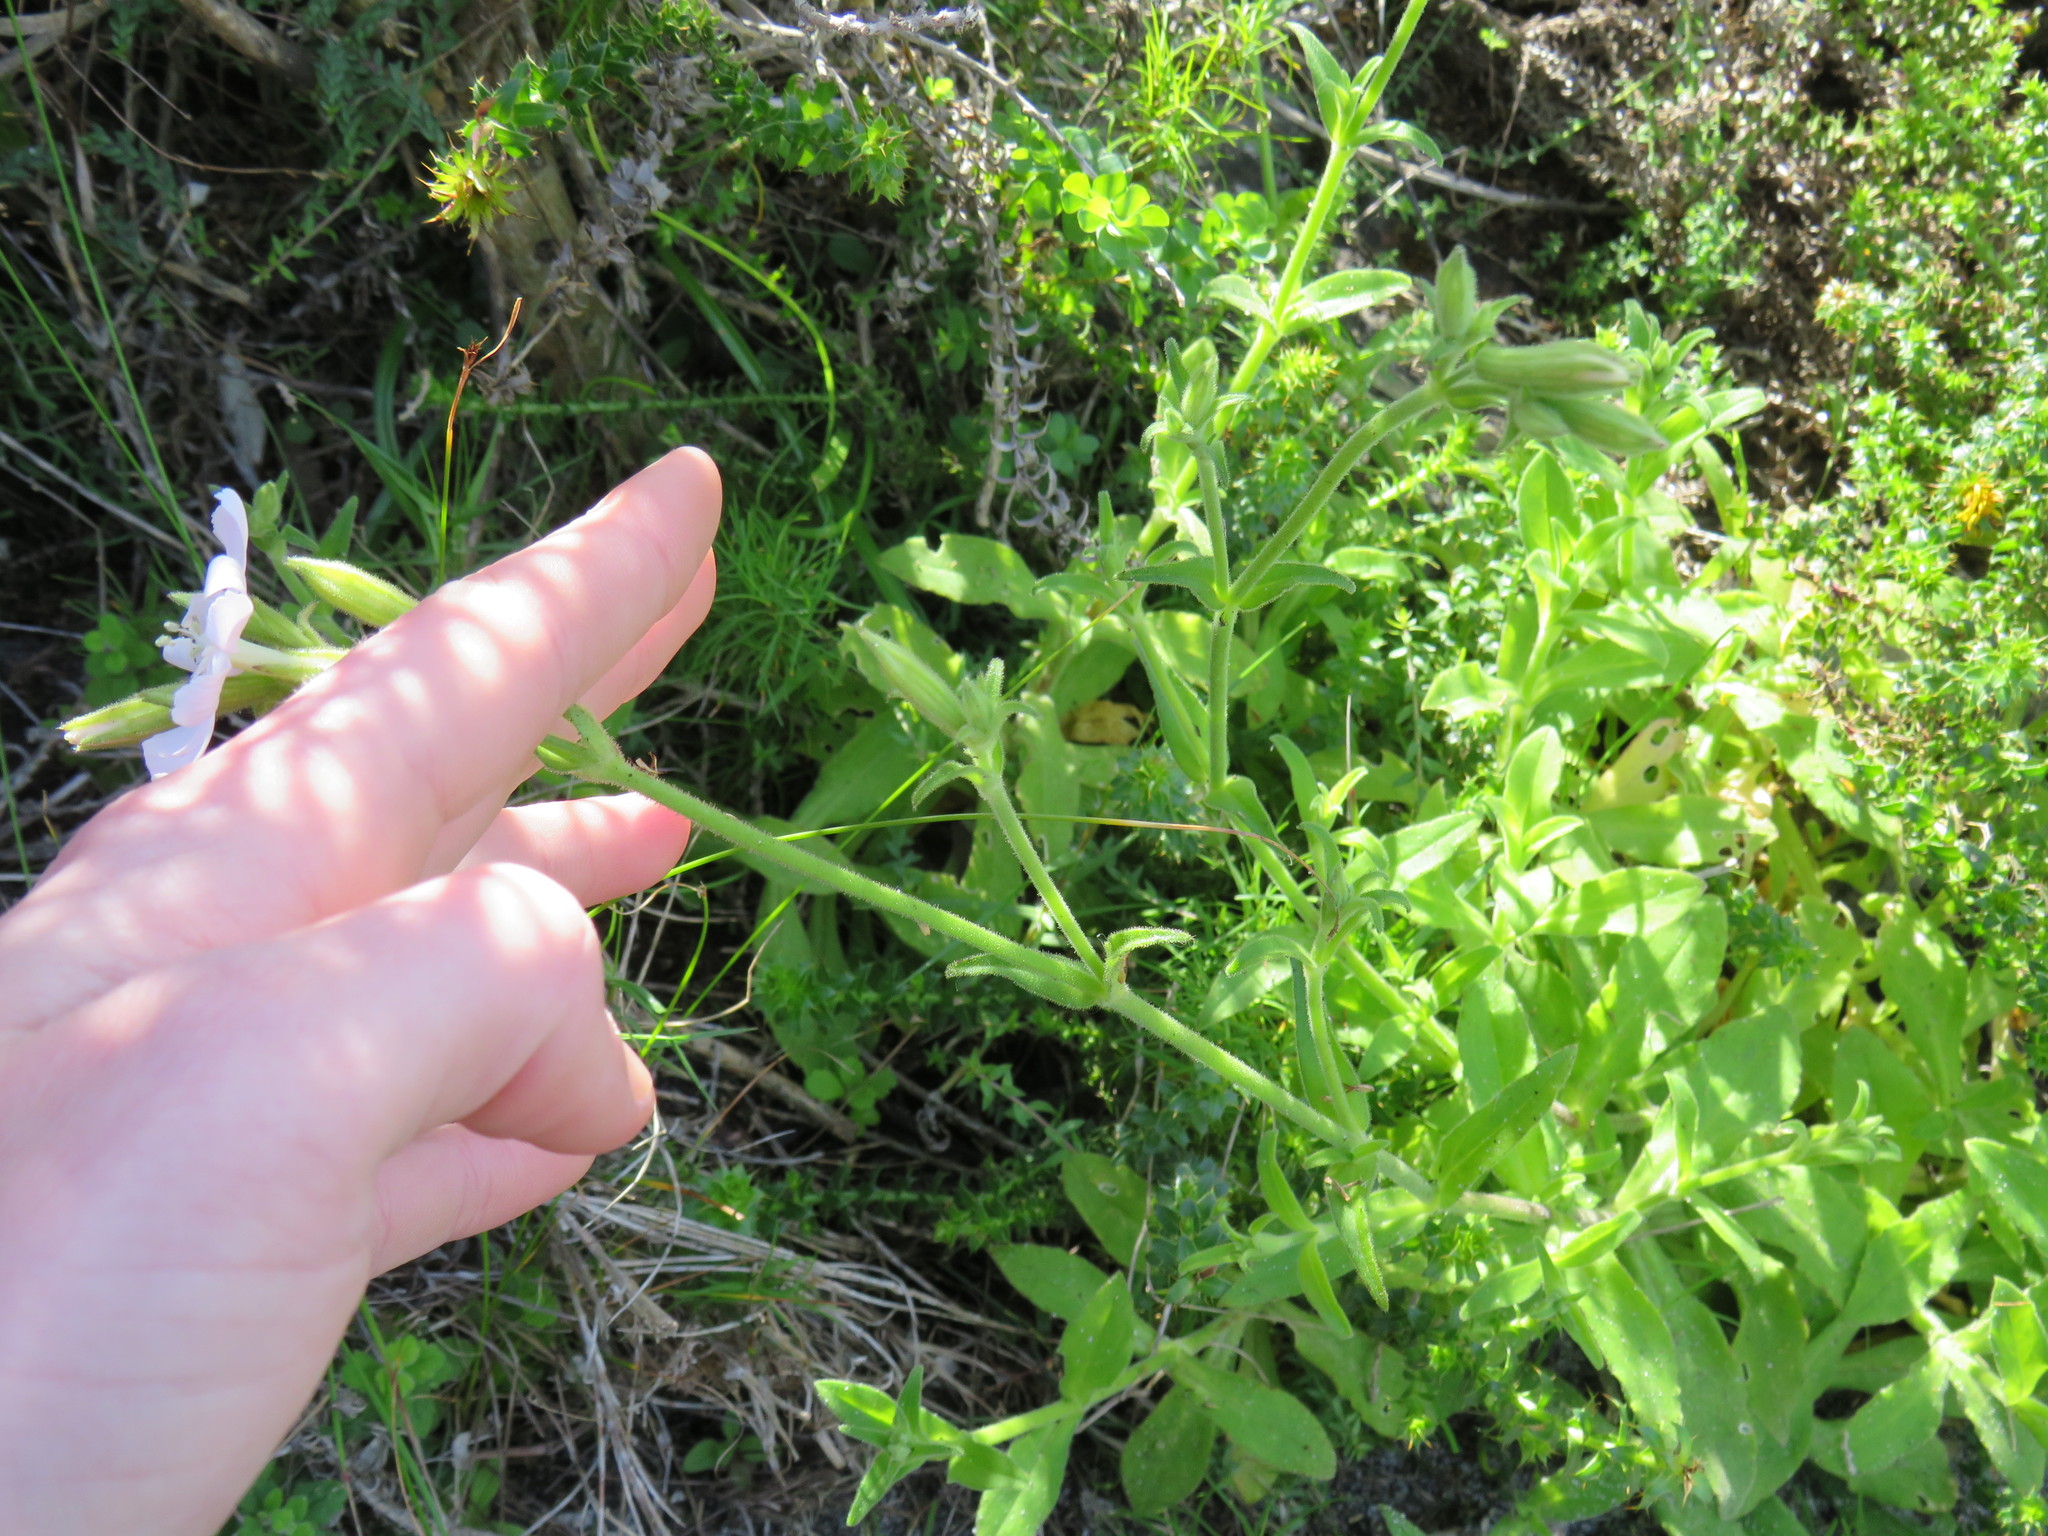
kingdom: Plantae
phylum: Tracheophyta
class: Magnoliopsida
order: Caryophyllales
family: Caryophyllaceae
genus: Silene
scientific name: Silene undulata
